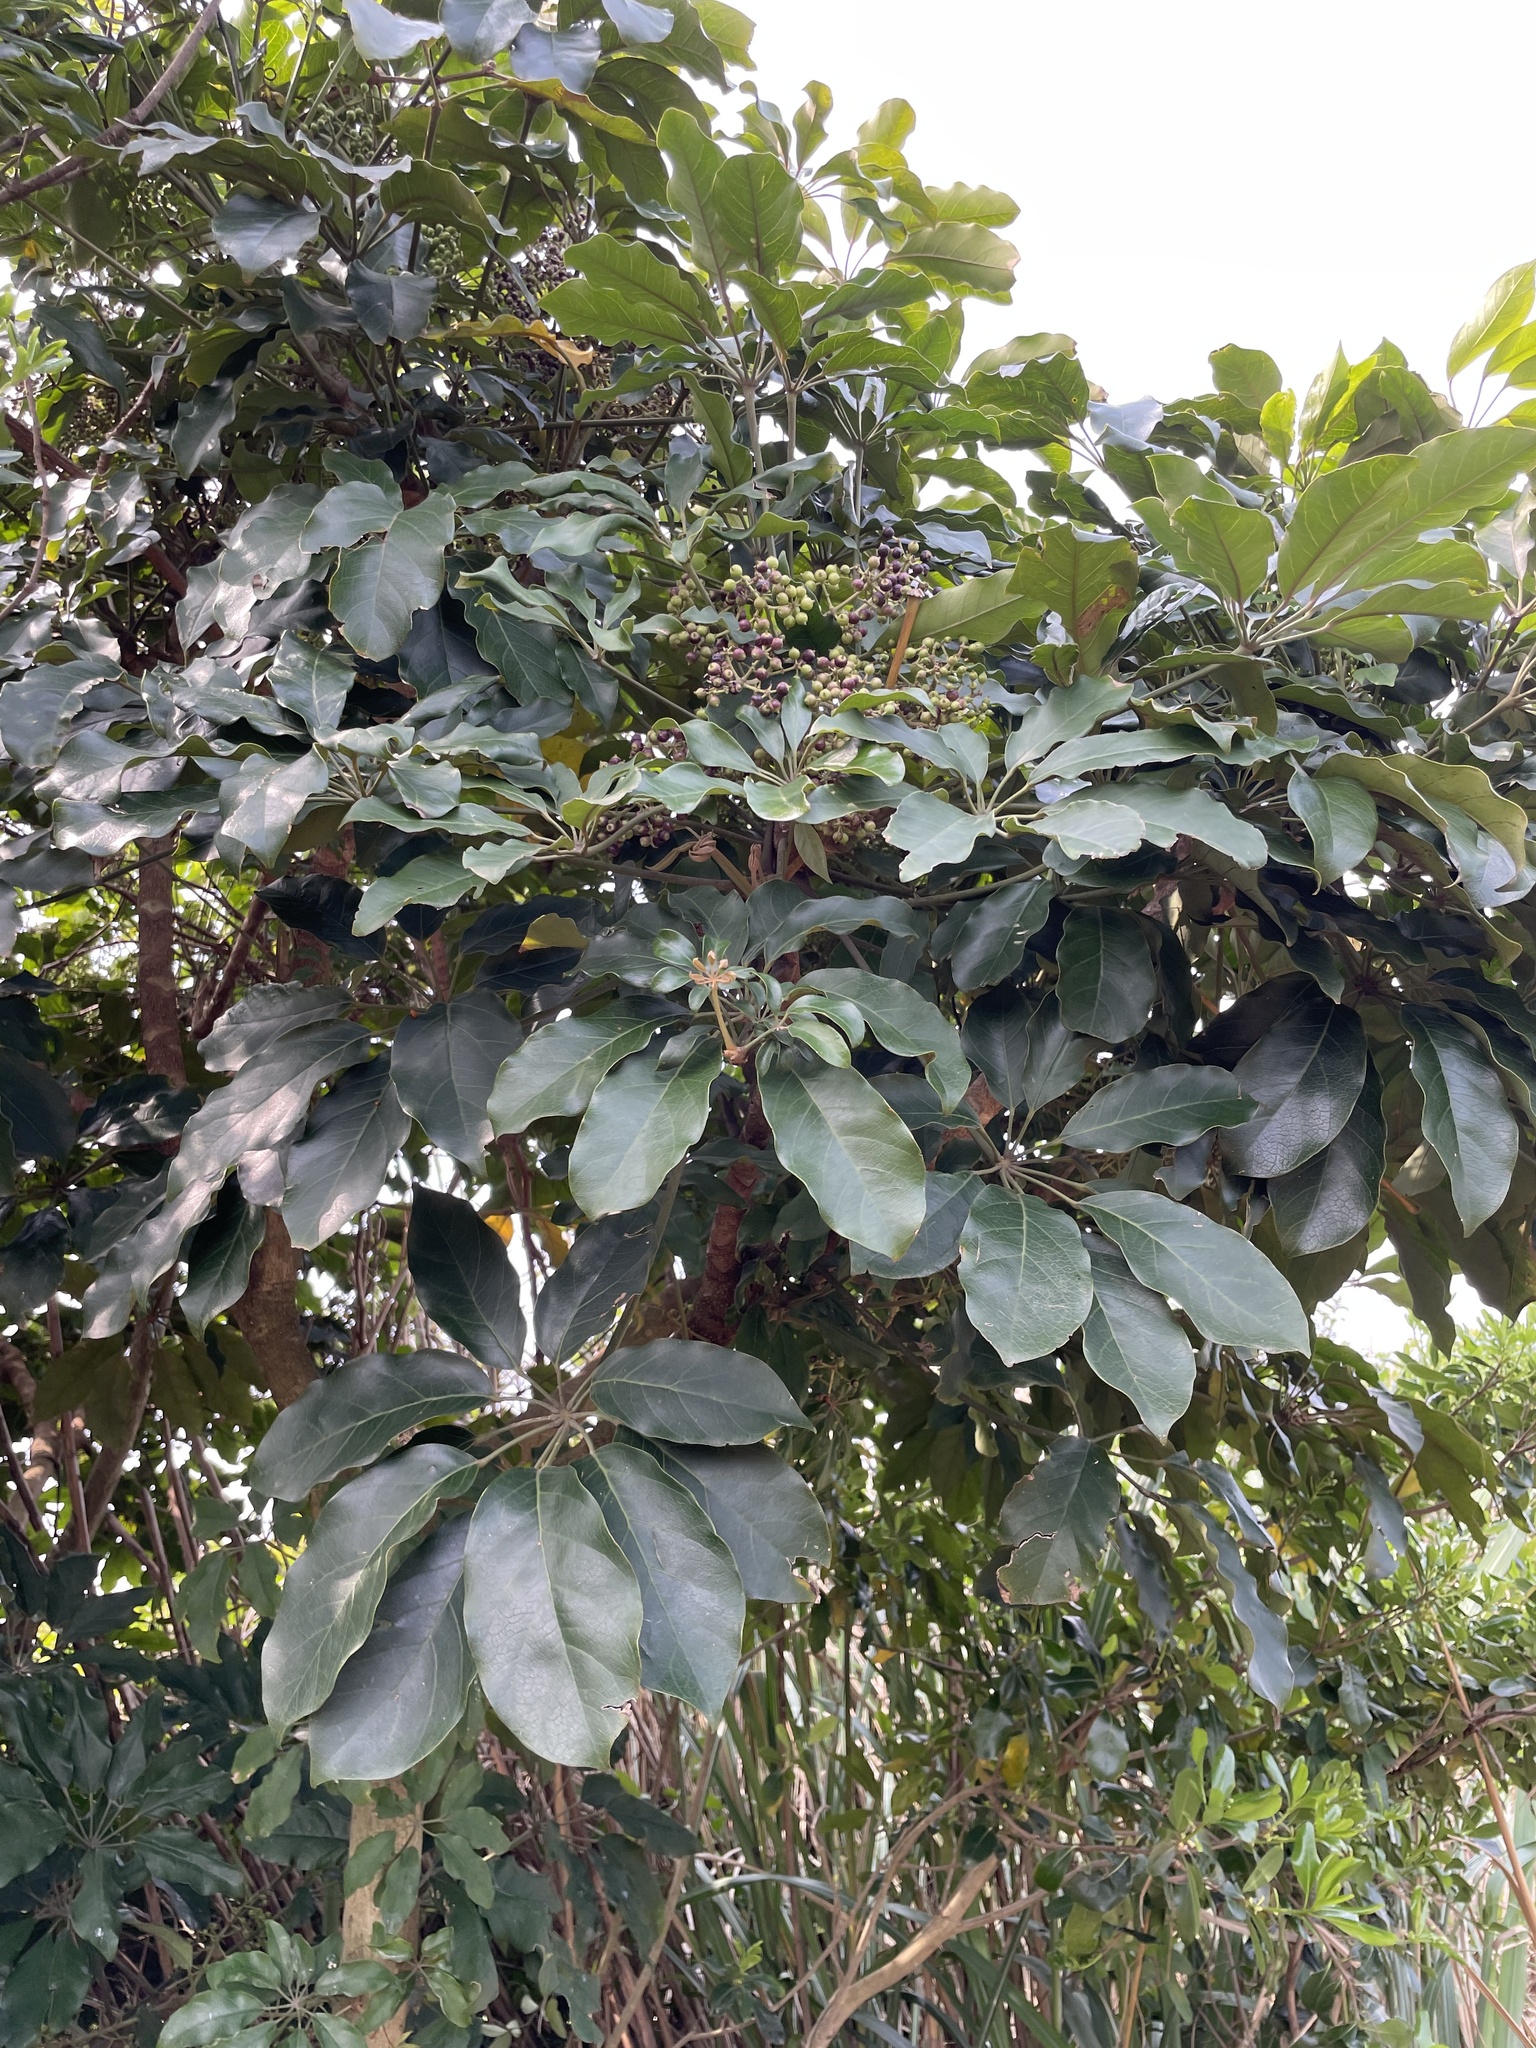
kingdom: Plantae
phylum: Tracheophyta
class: Magnoliopsida
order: Apiales
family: Araliaceae
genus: Heptapleurum
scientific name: Heptapleurum heptaphyllum
